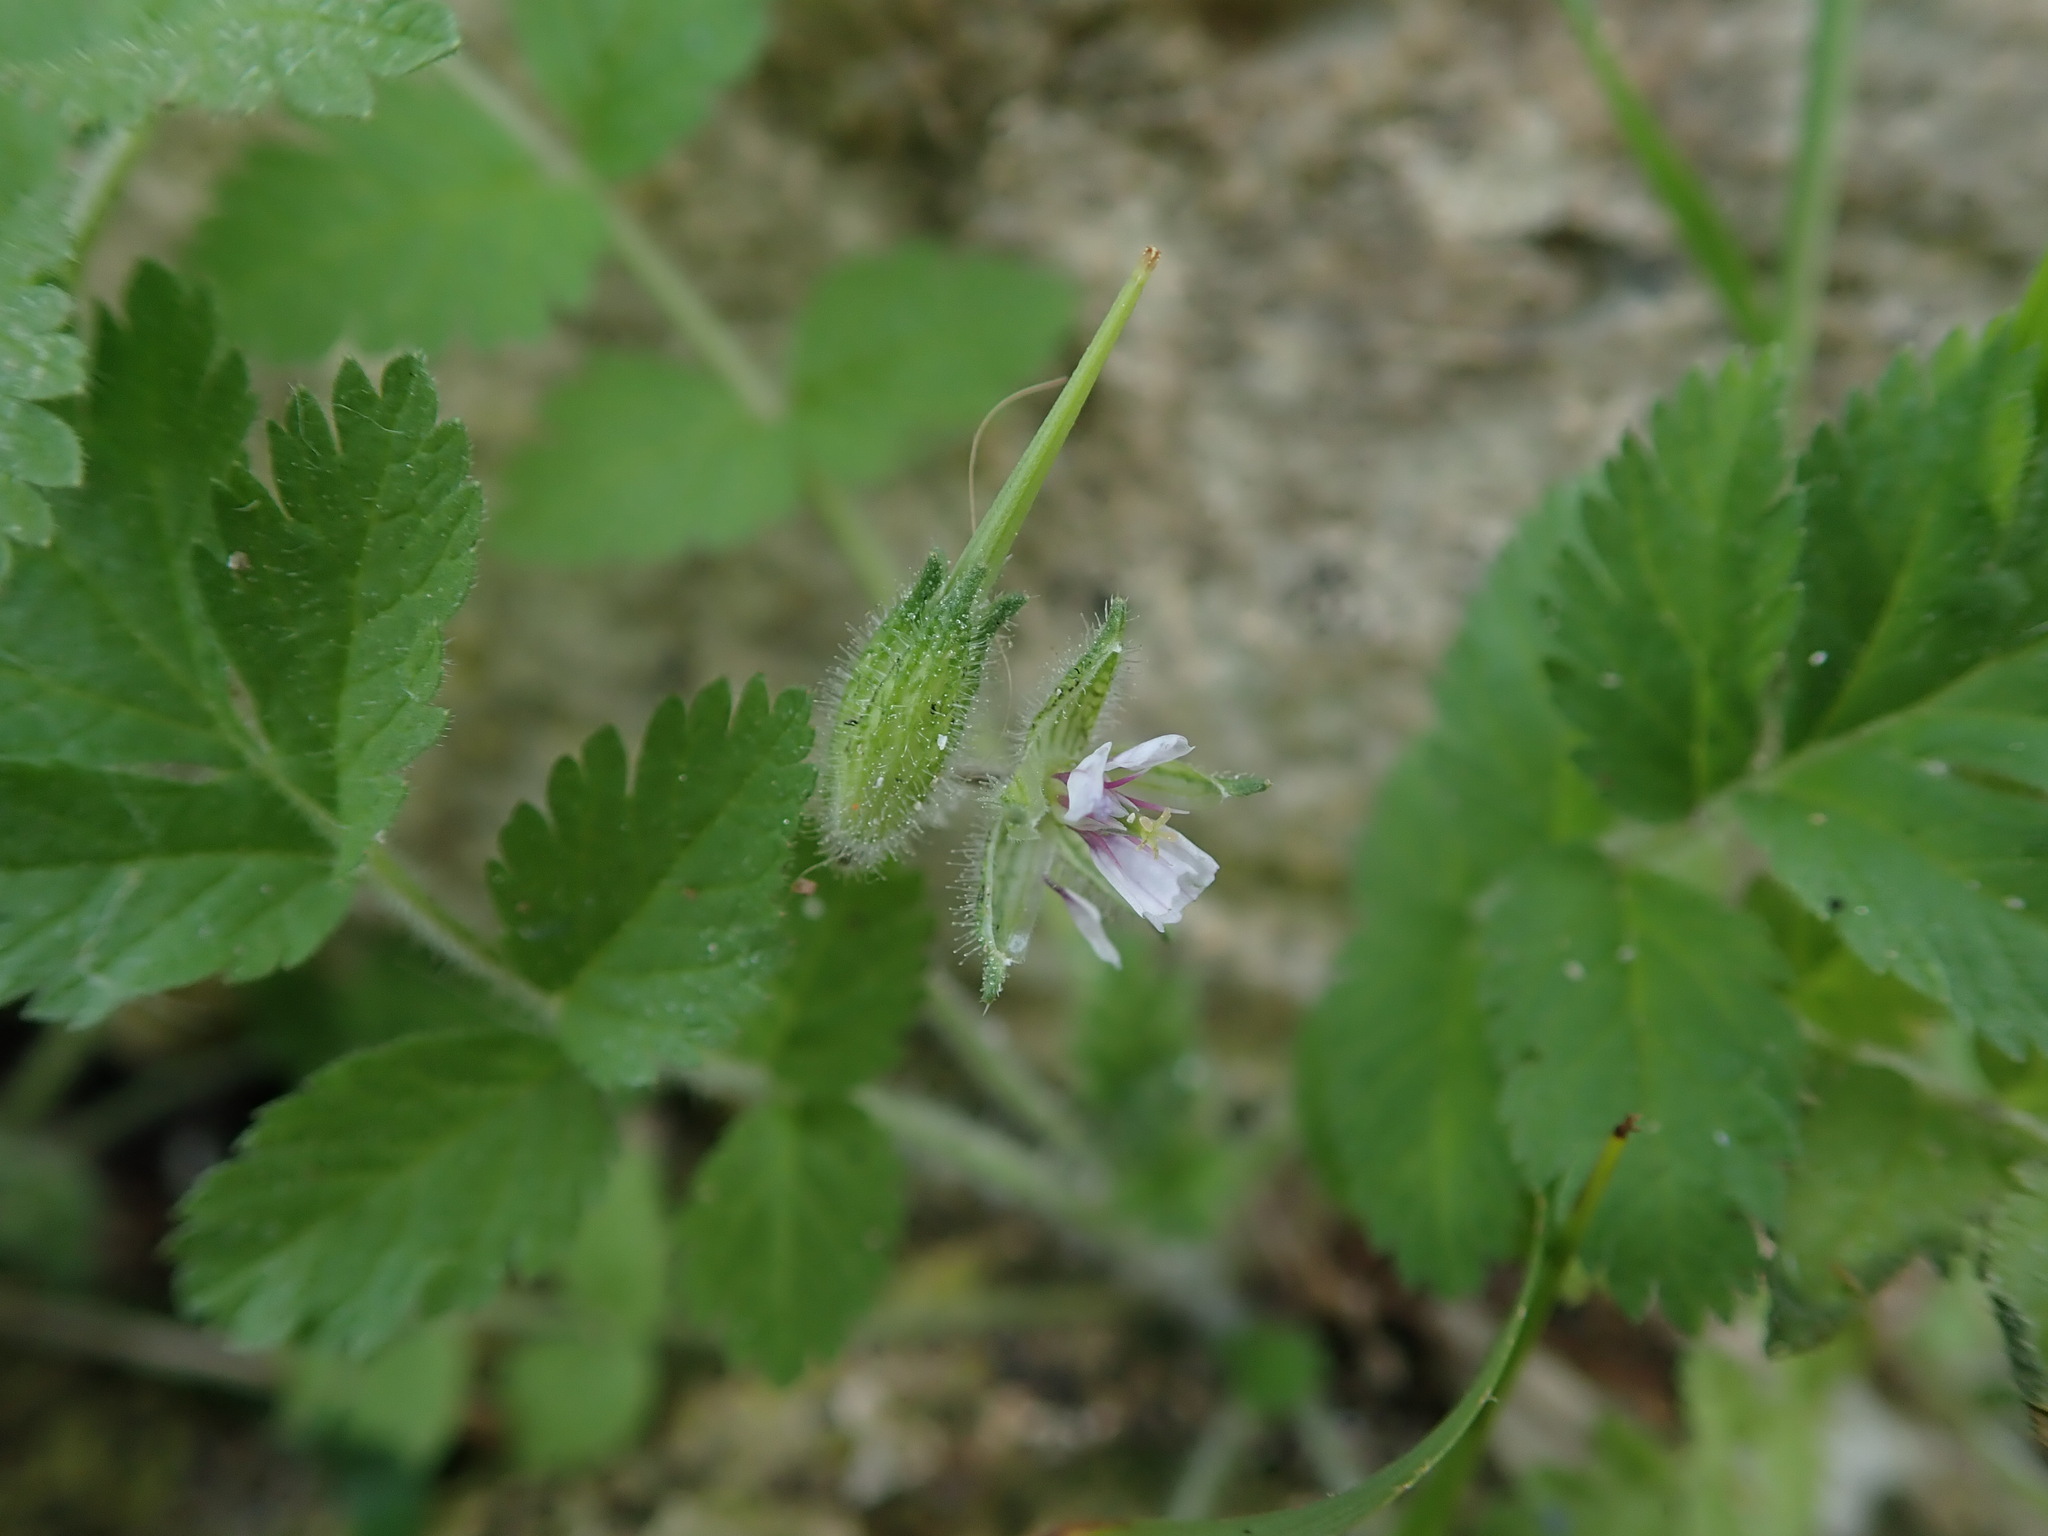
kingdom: Plantae
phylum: Tracheophyta
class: Magnoliopsida
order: Geraniales
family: Geraniaceae
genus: Erodium
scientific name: Erodium moschatum
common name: Musk stork's-bill
